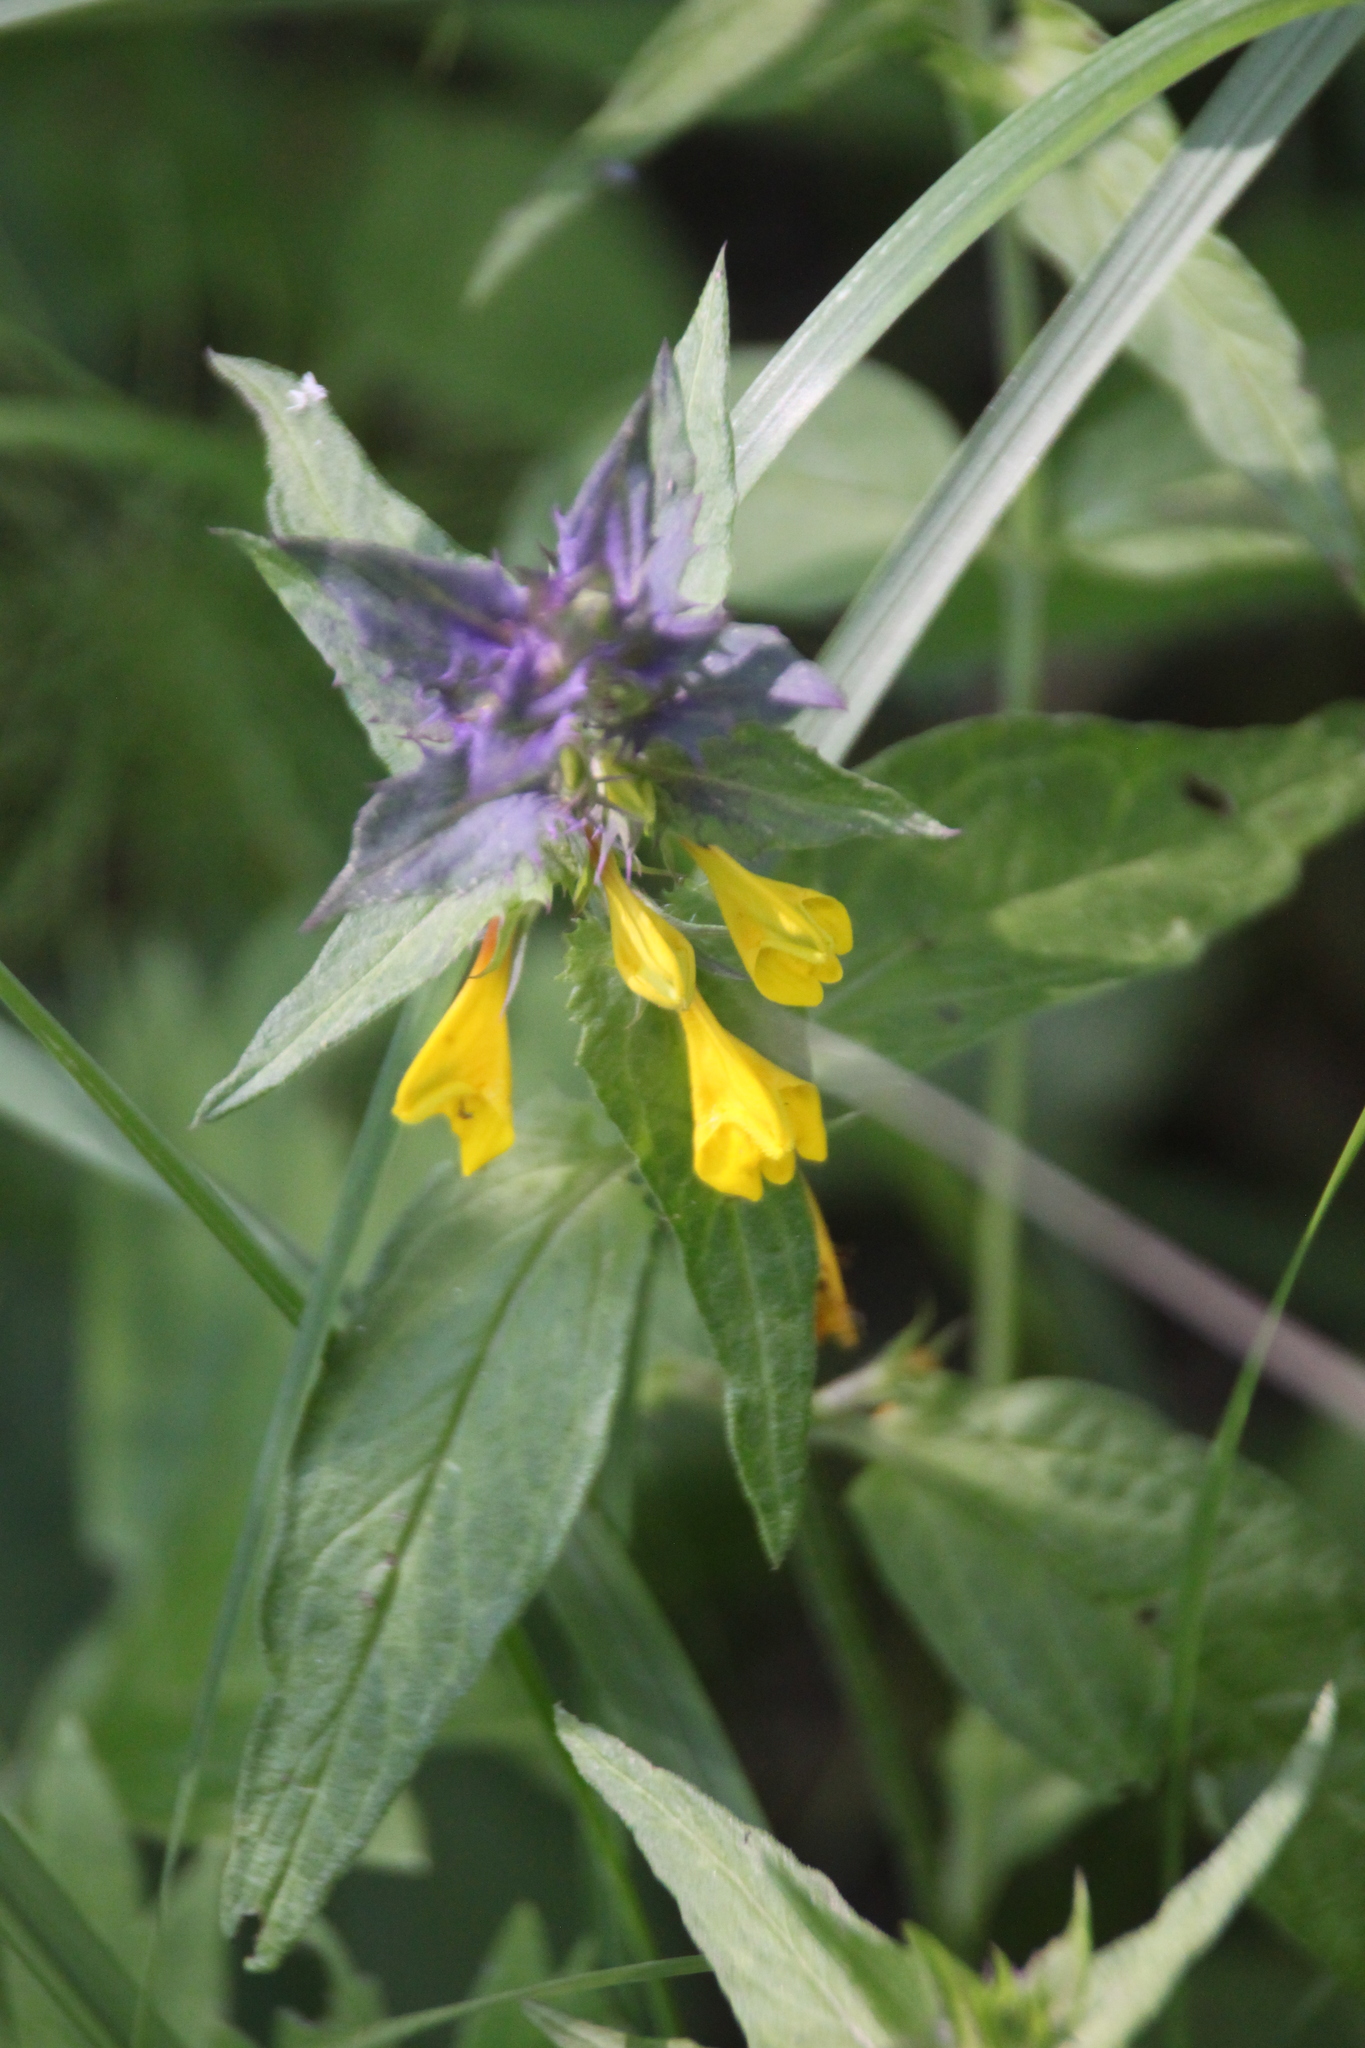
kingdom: Plantae
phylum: Tracheophyta
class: Magnoliopsida
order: Lamiales
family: Orobanchaceae
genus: Melampyrum
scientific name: Melampyrum nemorosum
